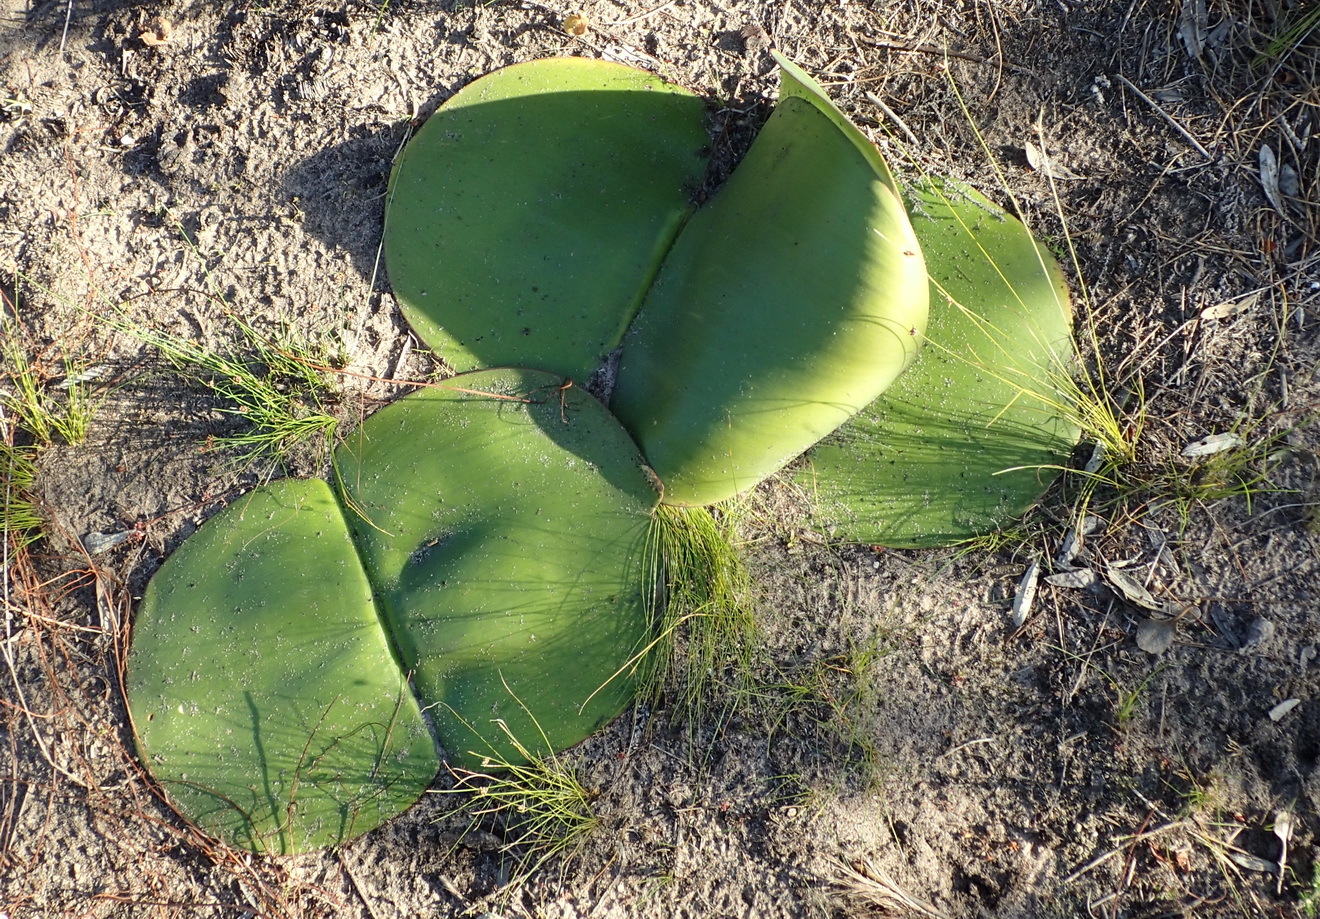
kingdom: Plantae
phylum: Tracheophyta
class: Liliopsida
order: Asparagales
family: Amaryllidaceae
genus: Haemanthus
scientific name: Haemanthus sanguineus
